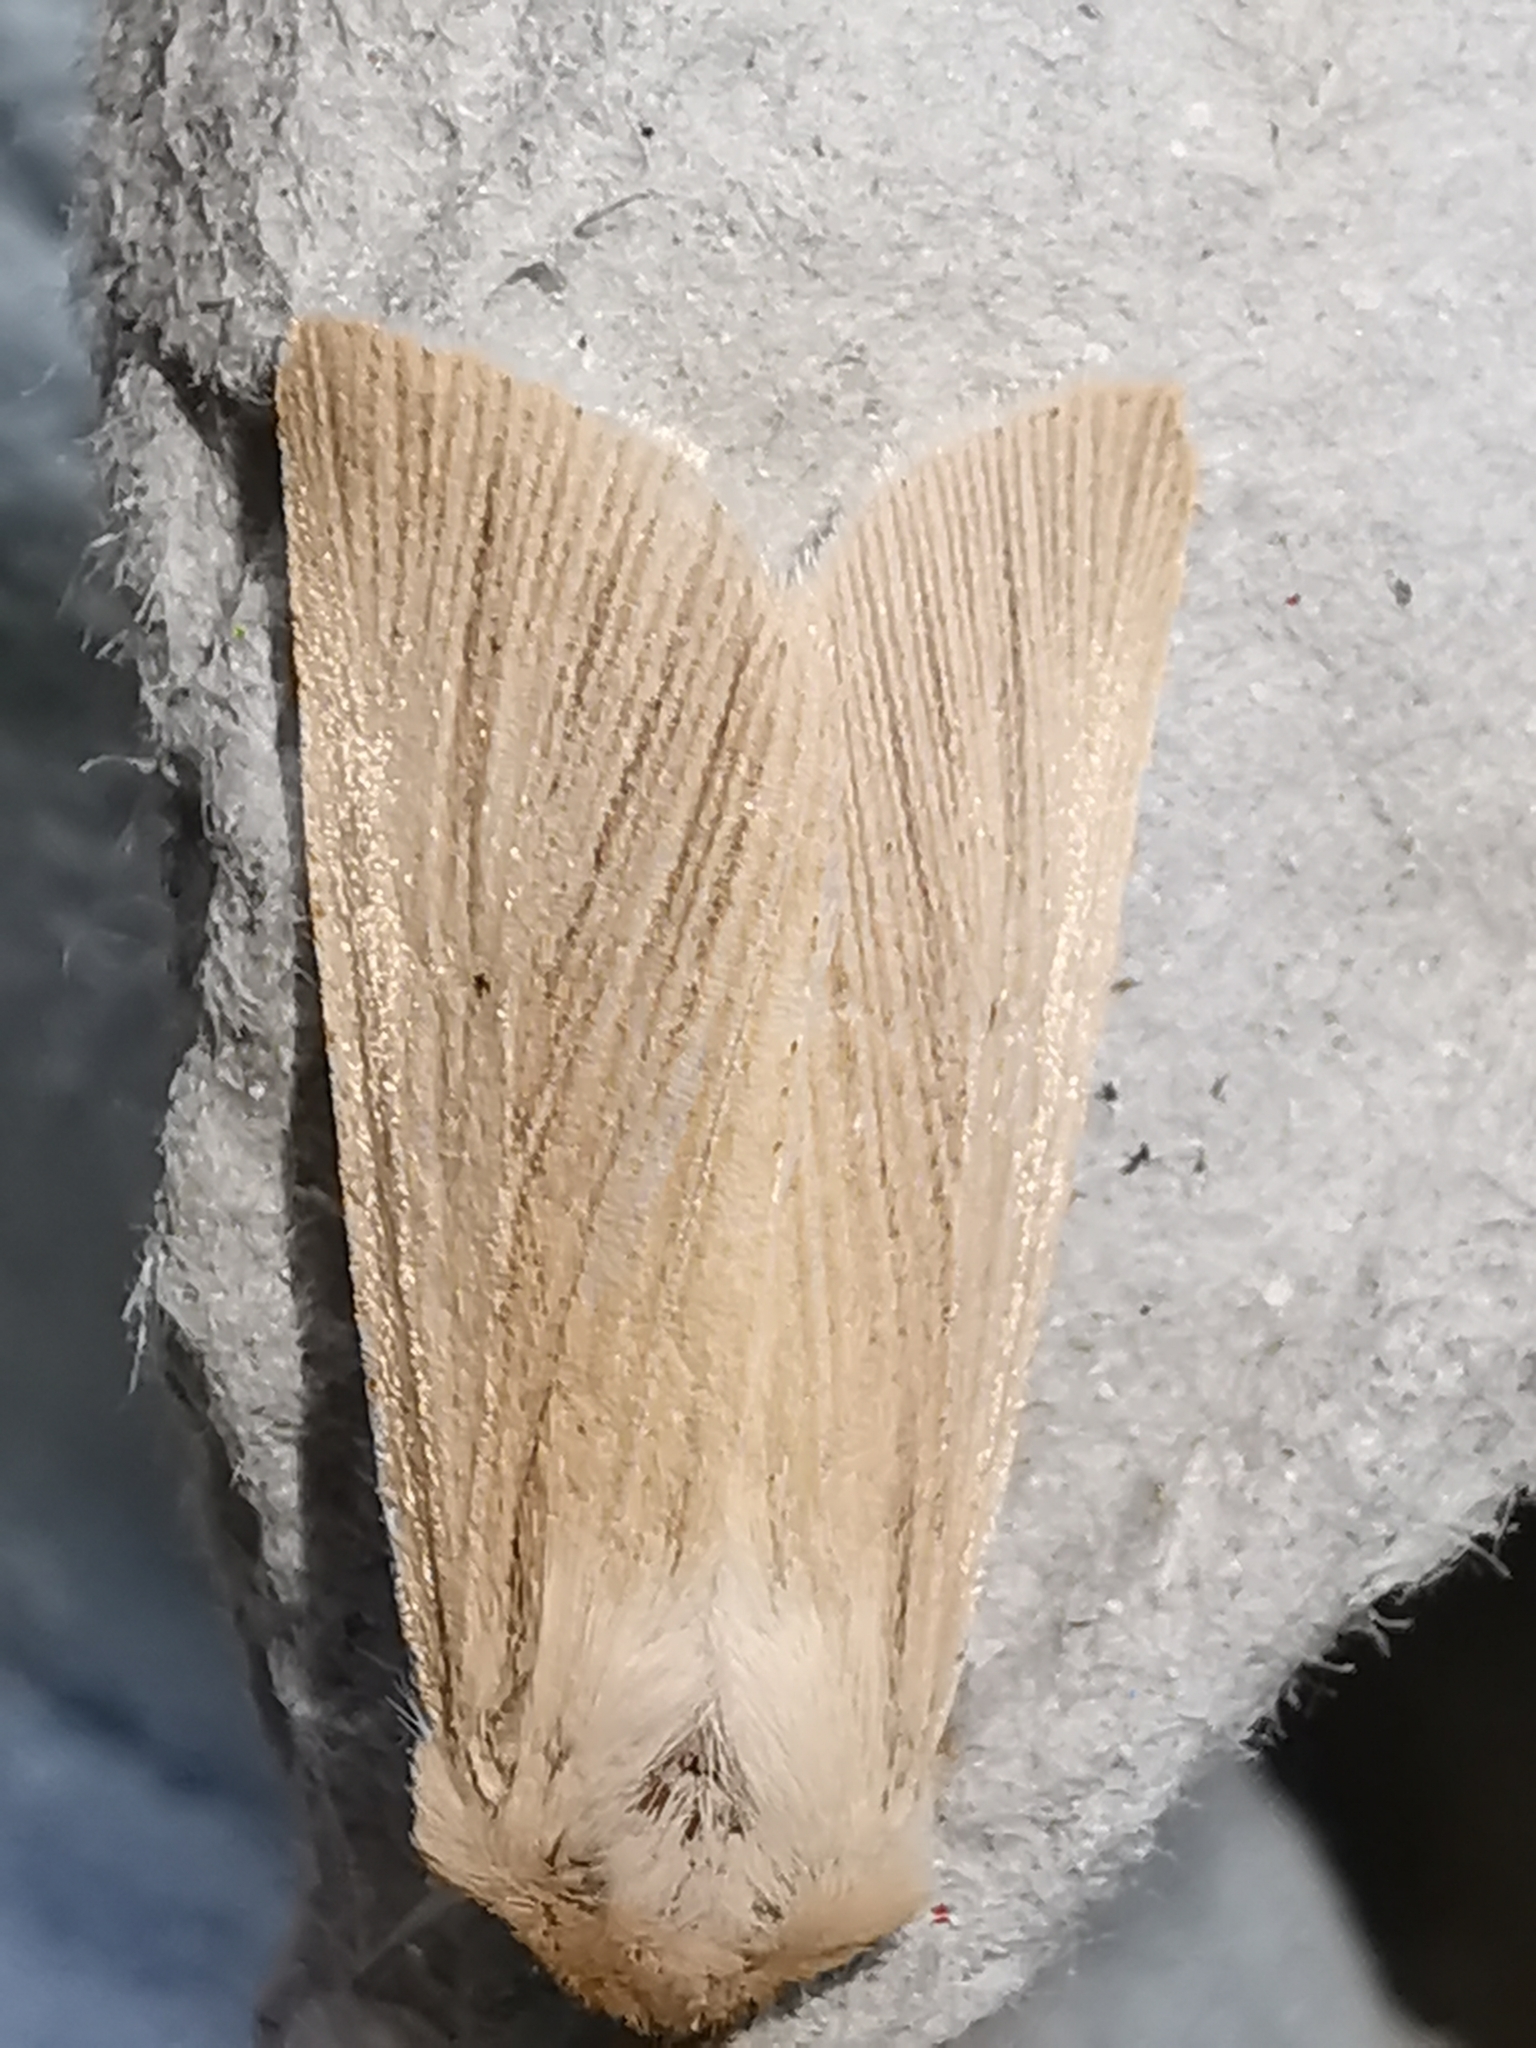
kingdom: Animalia
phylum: Arthropoda
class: Insecta
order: Lepidoptera
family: Noctuidae
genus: Mythimna
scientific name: Mythimna pallens
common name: Common wainscot
